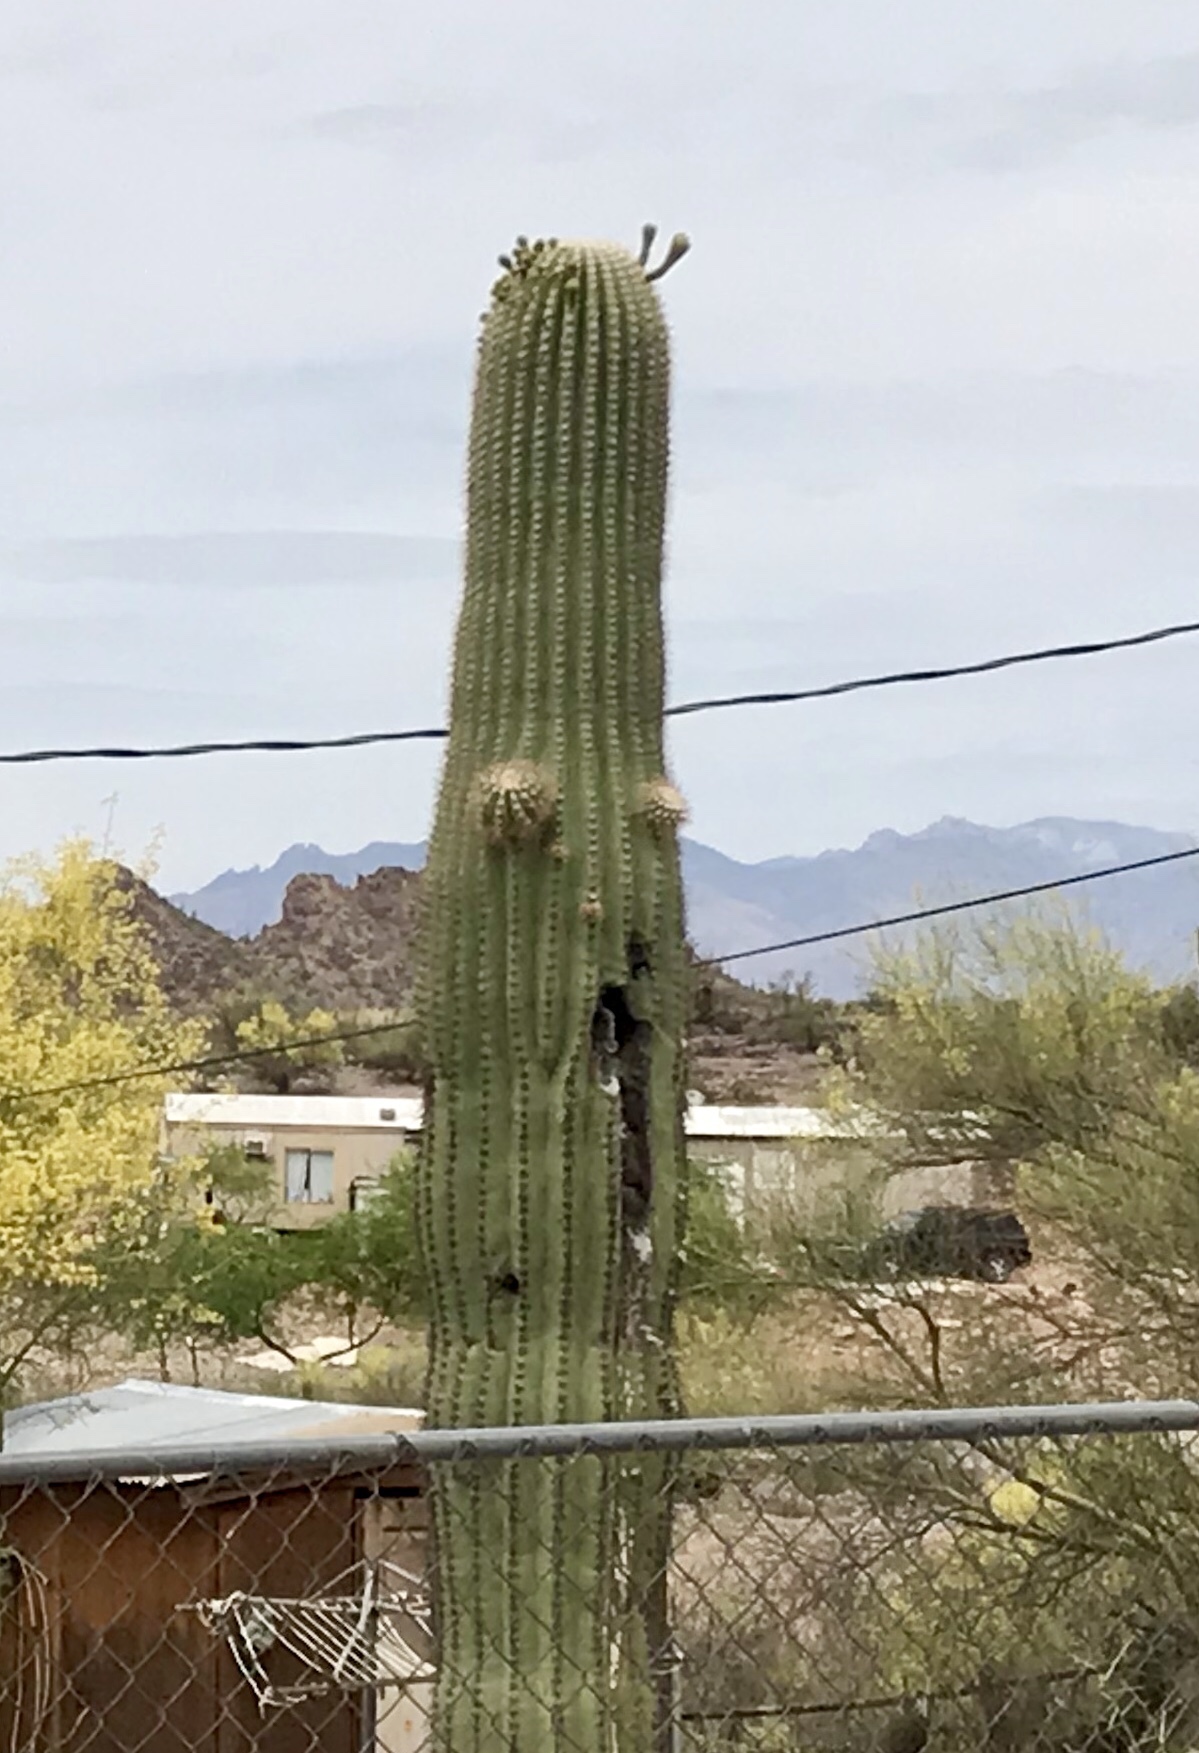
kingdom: Plantae
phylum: Tracheophyta
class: Magnoliopsida
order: Caryophyllales
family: Cactaceae
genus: Carnegiea
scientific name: Carnegiea gigantea
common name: Saguaro
